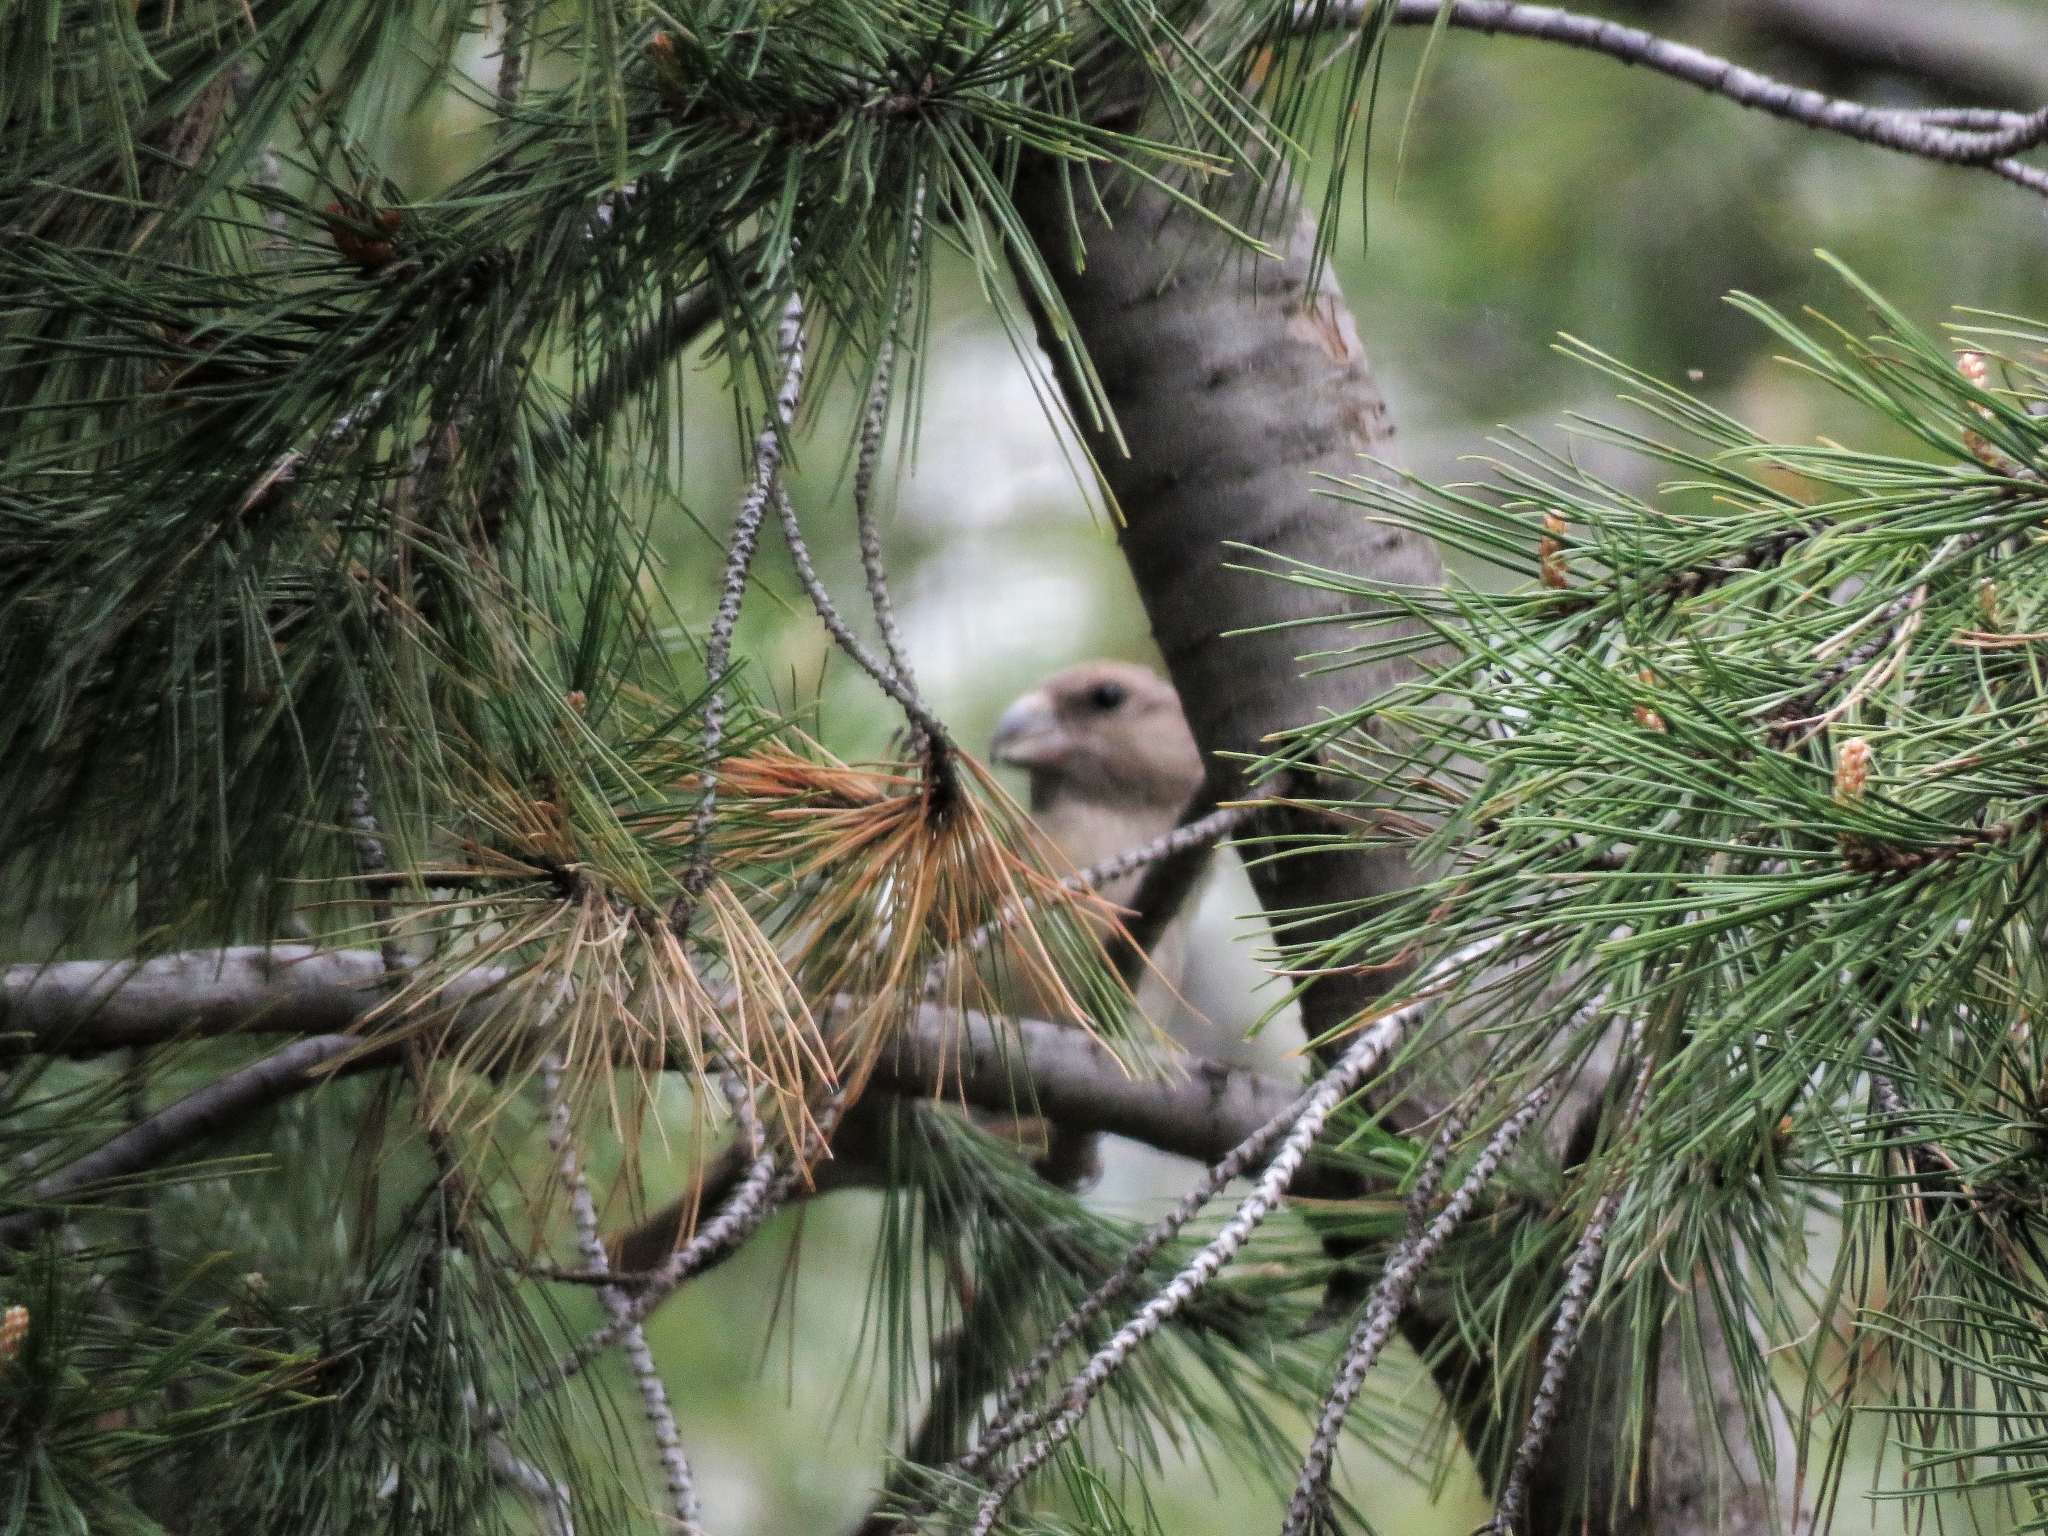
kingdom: Animalia
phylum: Chordata
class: Aves
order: Passeriformes
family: Fringillidae
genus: Loxia
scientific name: Loxia curvirostra
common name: Red crossbill
